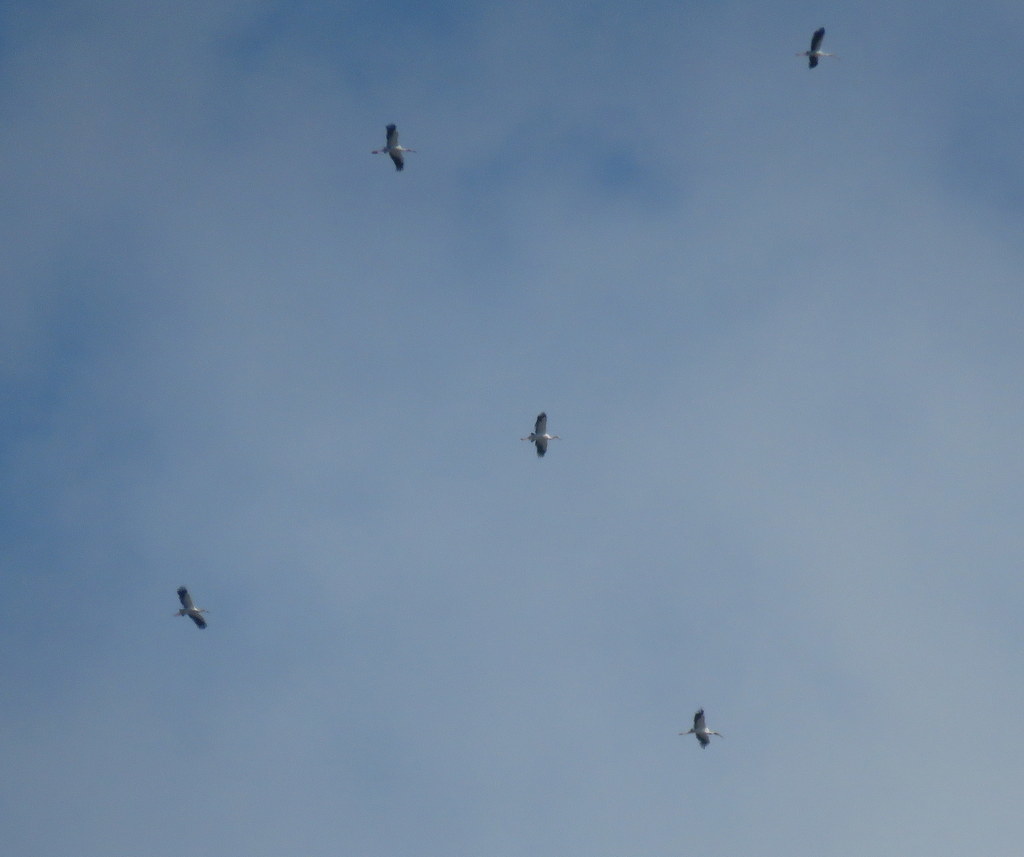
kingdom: Animalia
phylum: Chordata
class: Aves
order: Ciconiiformes
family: Ciconiidae
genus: Ciconia
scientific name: Ciconia maguari
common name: Maguari stork
